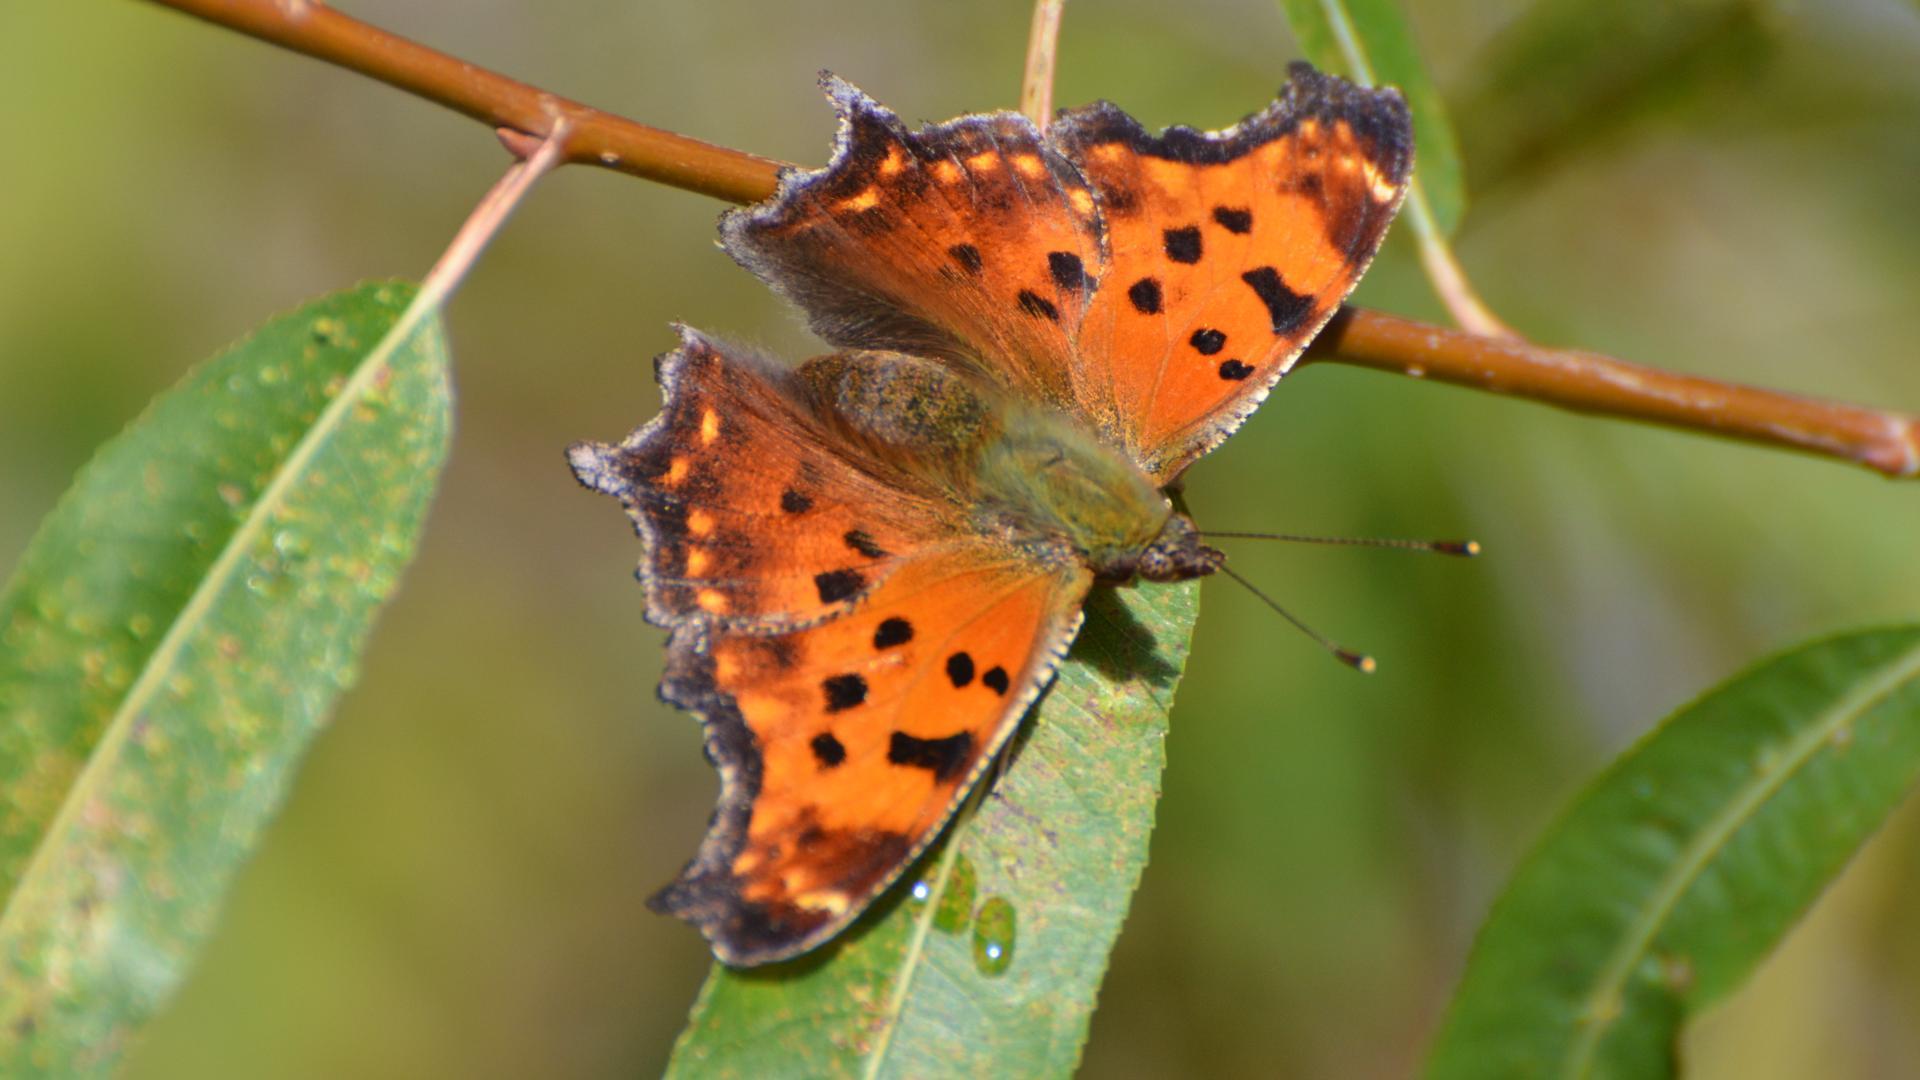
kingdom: Animalia
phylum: Arthropoda
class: Insecta
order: Lepidoptera
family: Nymphalidae
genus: Polygonia
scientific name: Polygonia comma
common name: Eastern comma
